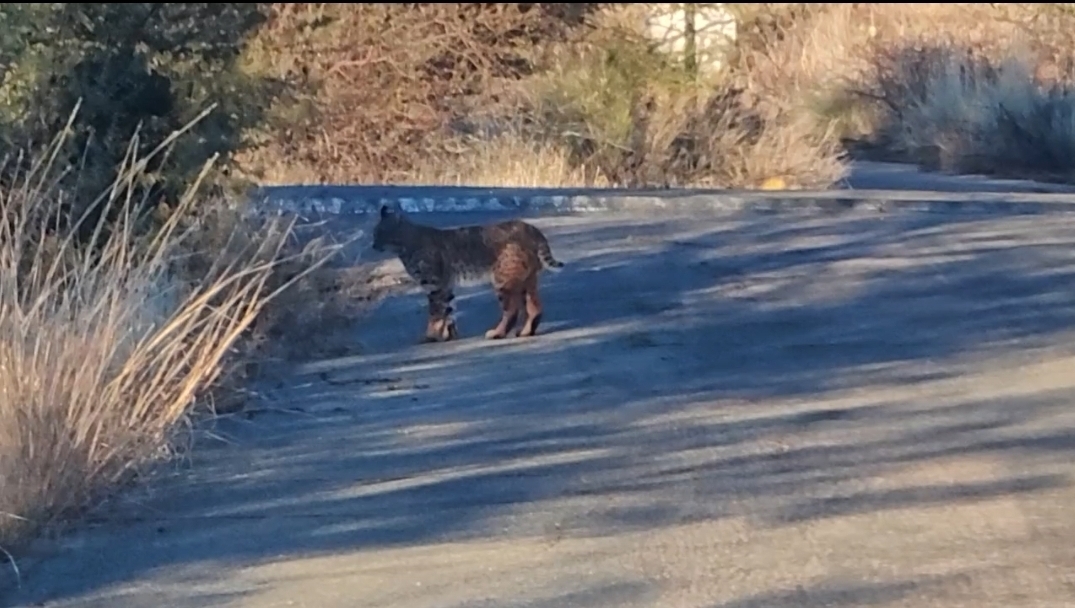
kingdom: Animalia
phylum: Chordata
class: Mammalia
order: Carnivora
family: Felidae
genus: Lynx
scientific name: Lynx rufus
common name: Bobcat
